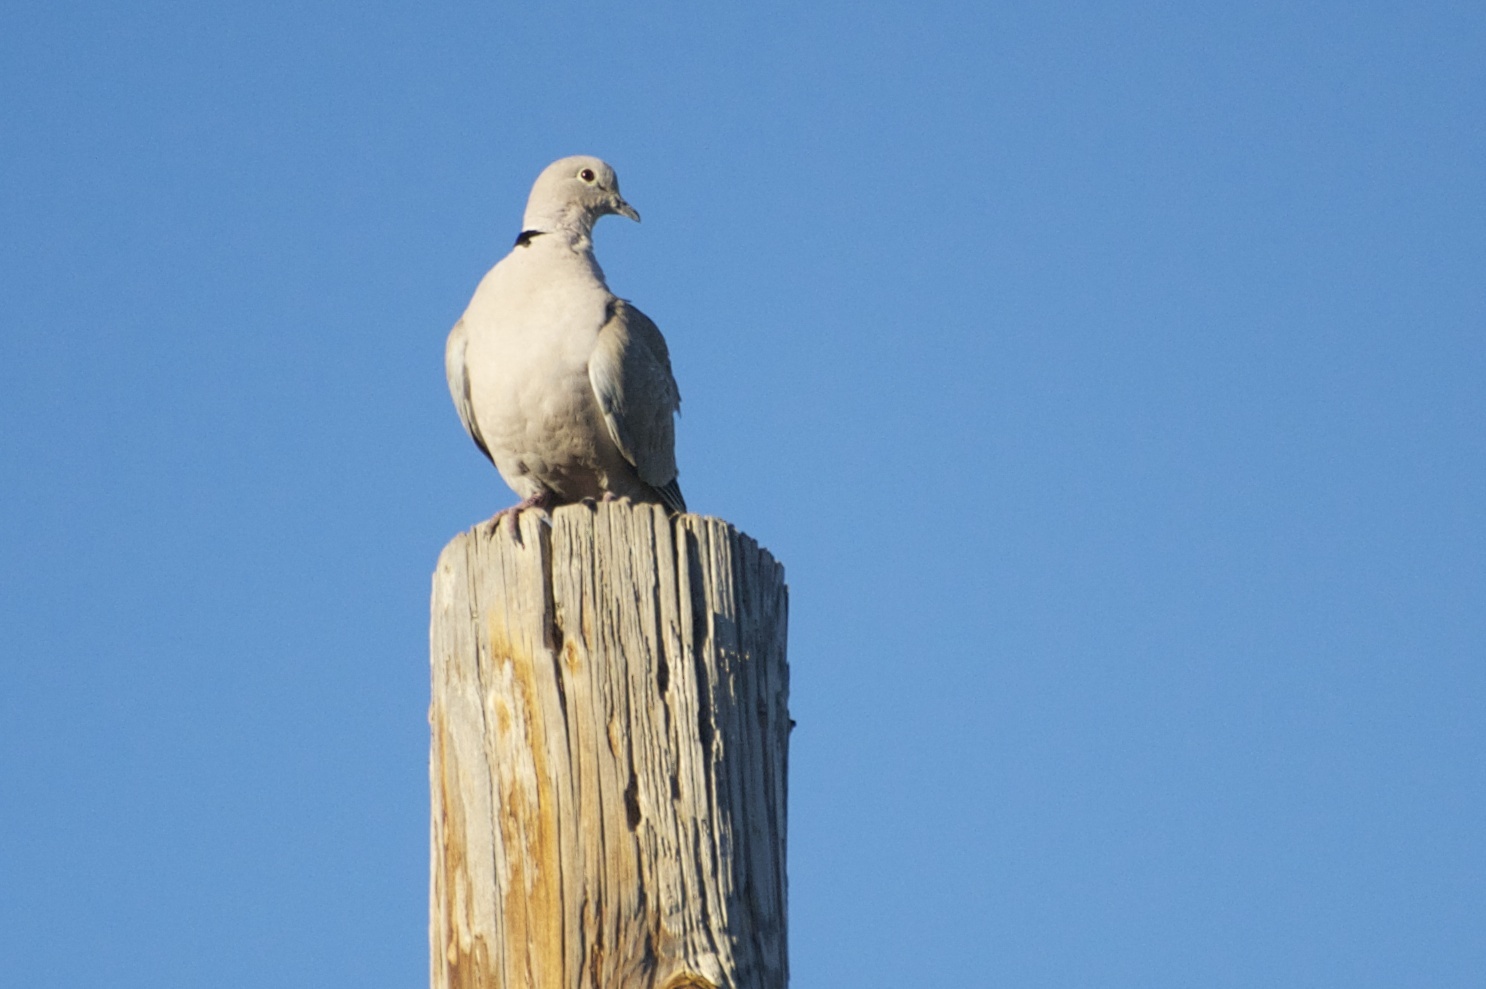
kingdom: Animalia
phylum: Chordata
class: Aves
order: Columbiformes
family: Columbidae
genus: Streptopelia
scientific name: Streptopelia decaocto
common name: Eurasian collared dove
